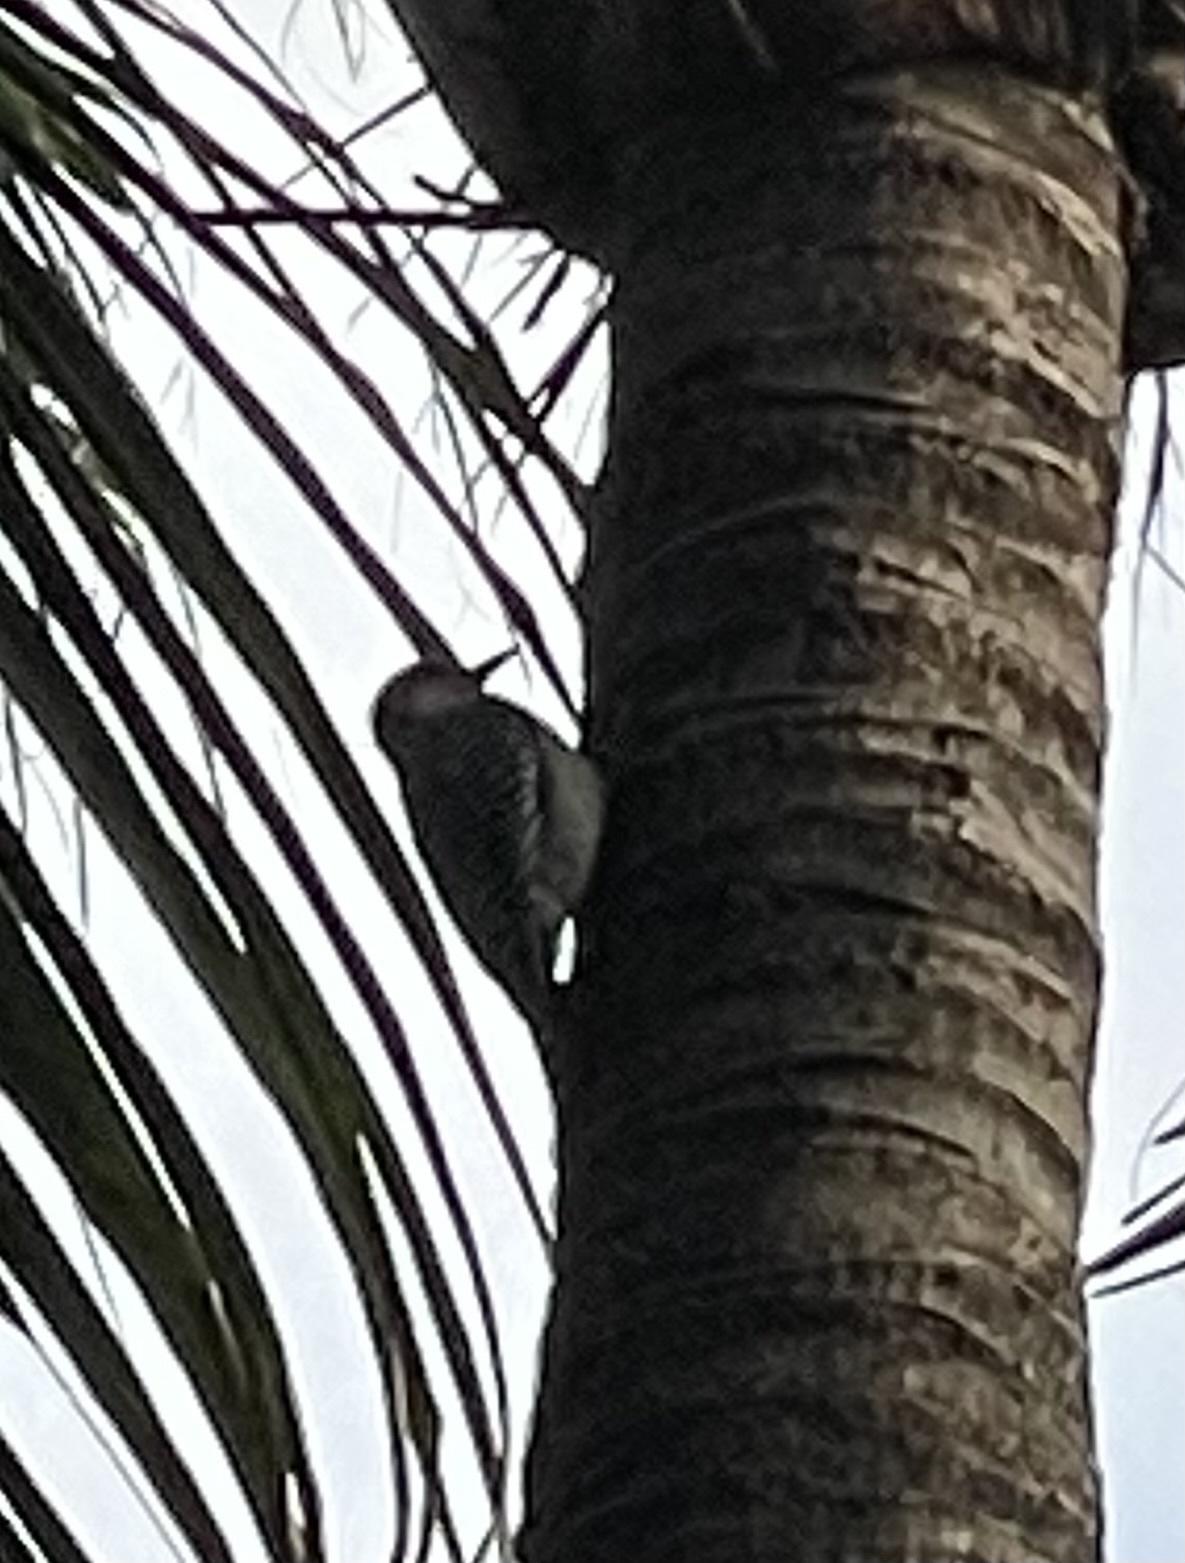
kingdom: Animalia
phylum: Chordata
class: Aves
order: Piciformes
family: Picidae
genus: Melanerpes
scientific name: Melanerpes carolinus
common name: Red-bellied woodpecker
